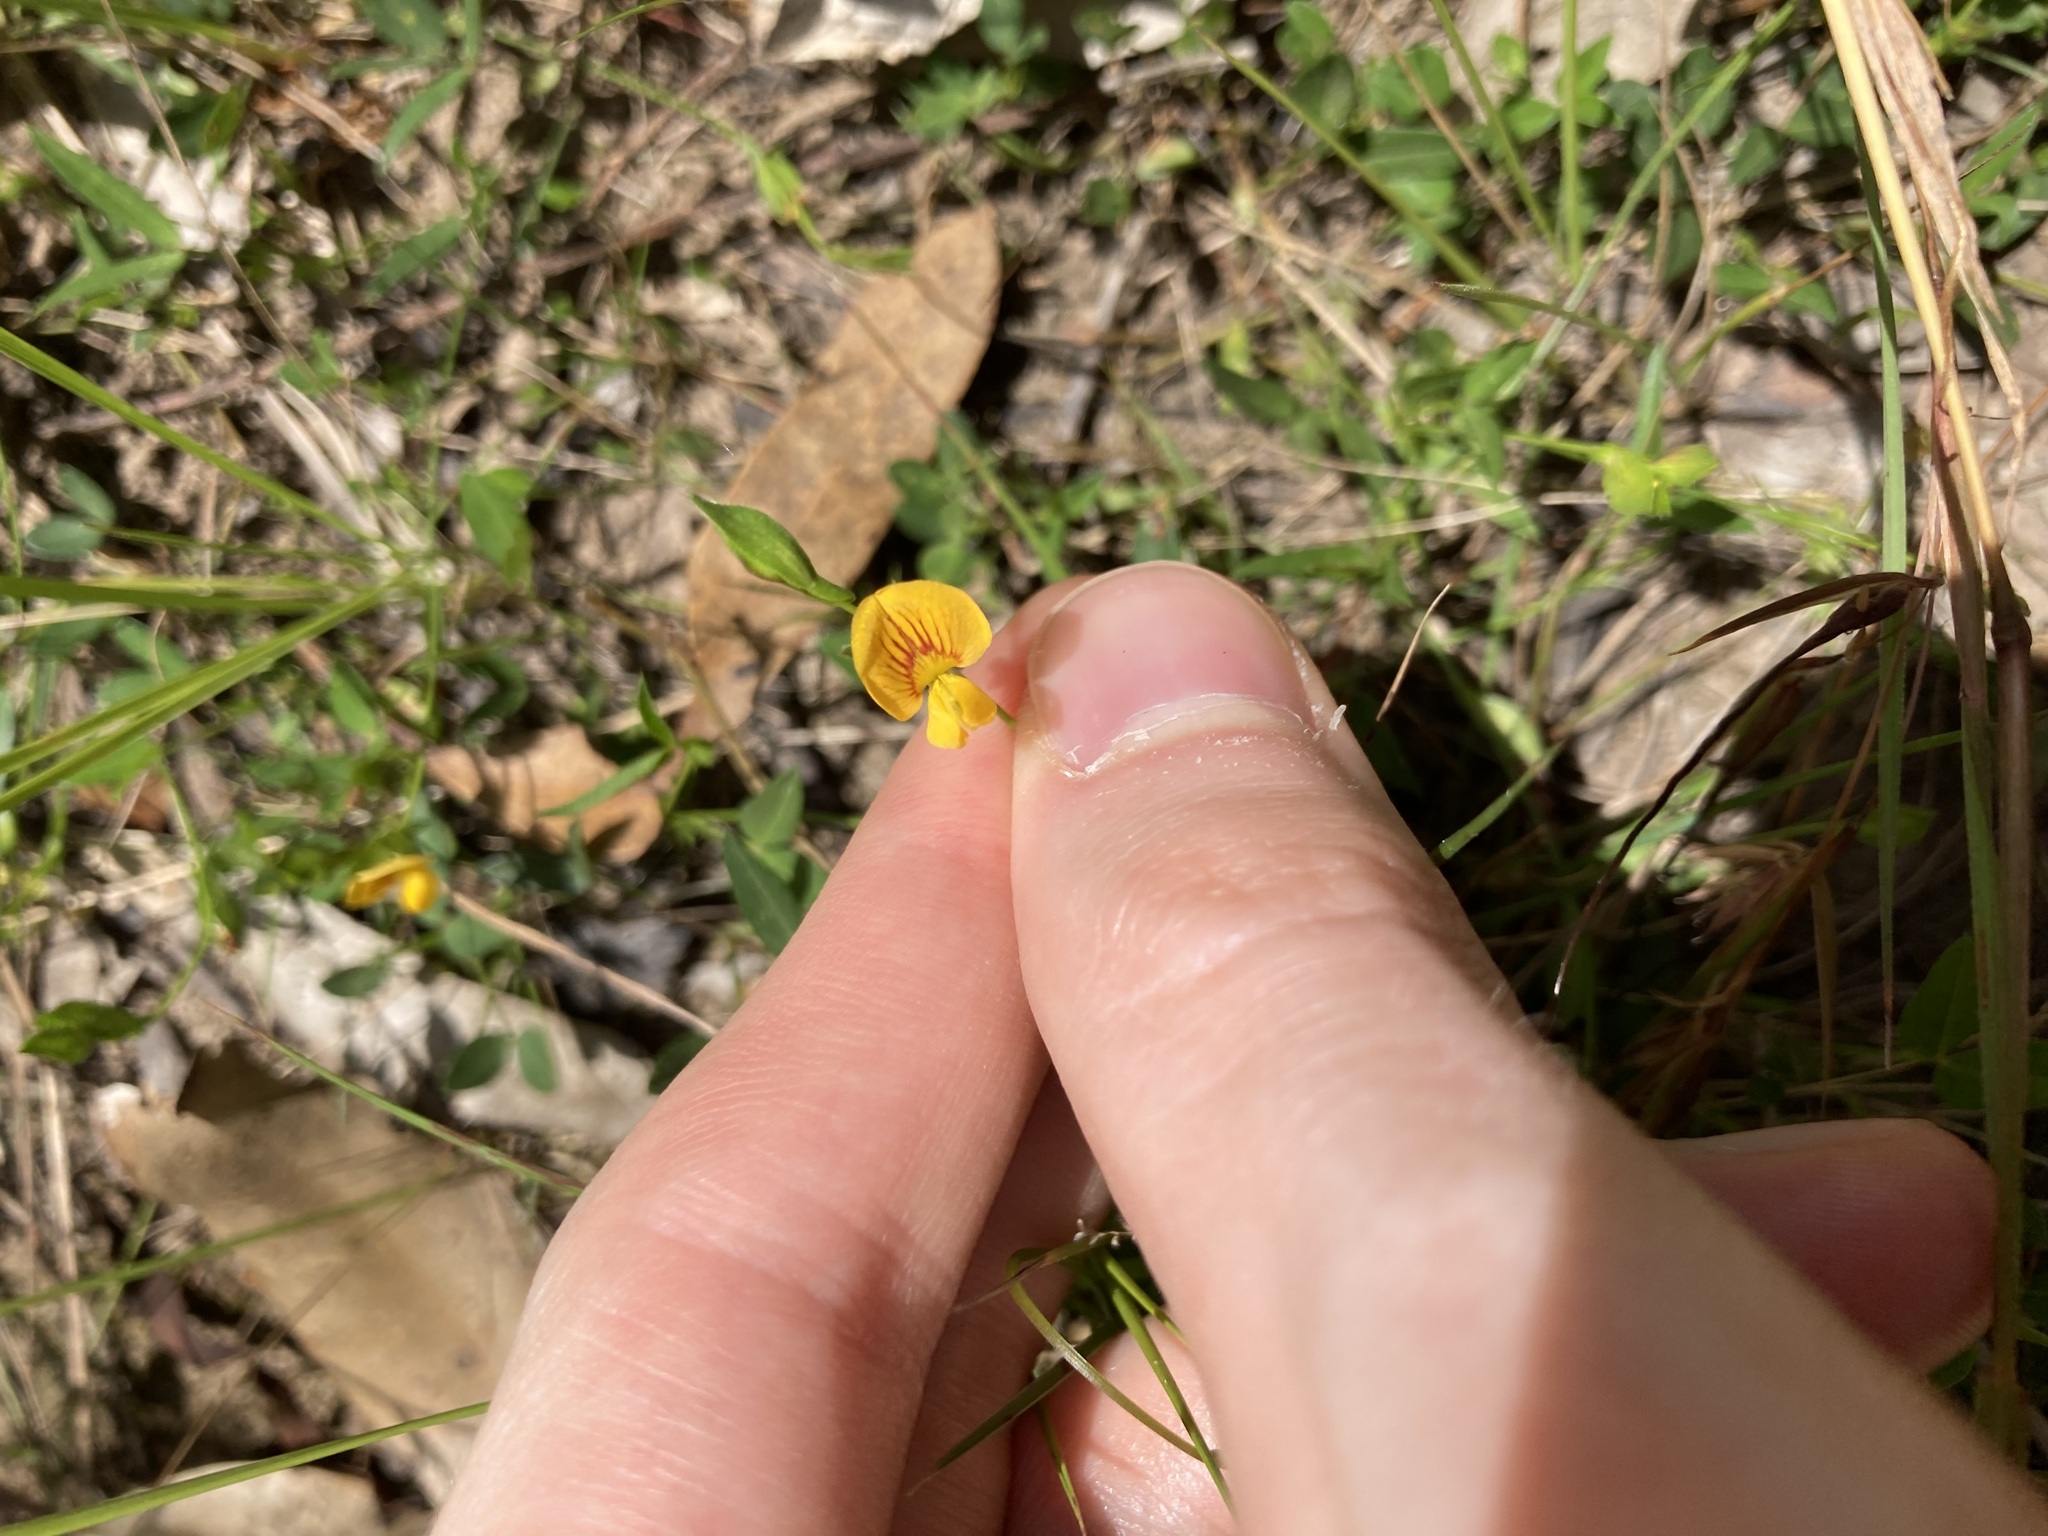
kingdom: Plantae
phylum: Tracheophyta
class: Magnoliopsida
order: Fabales
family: Fabaceae
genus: Zornia
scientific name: Zornia dyctiocarpa
